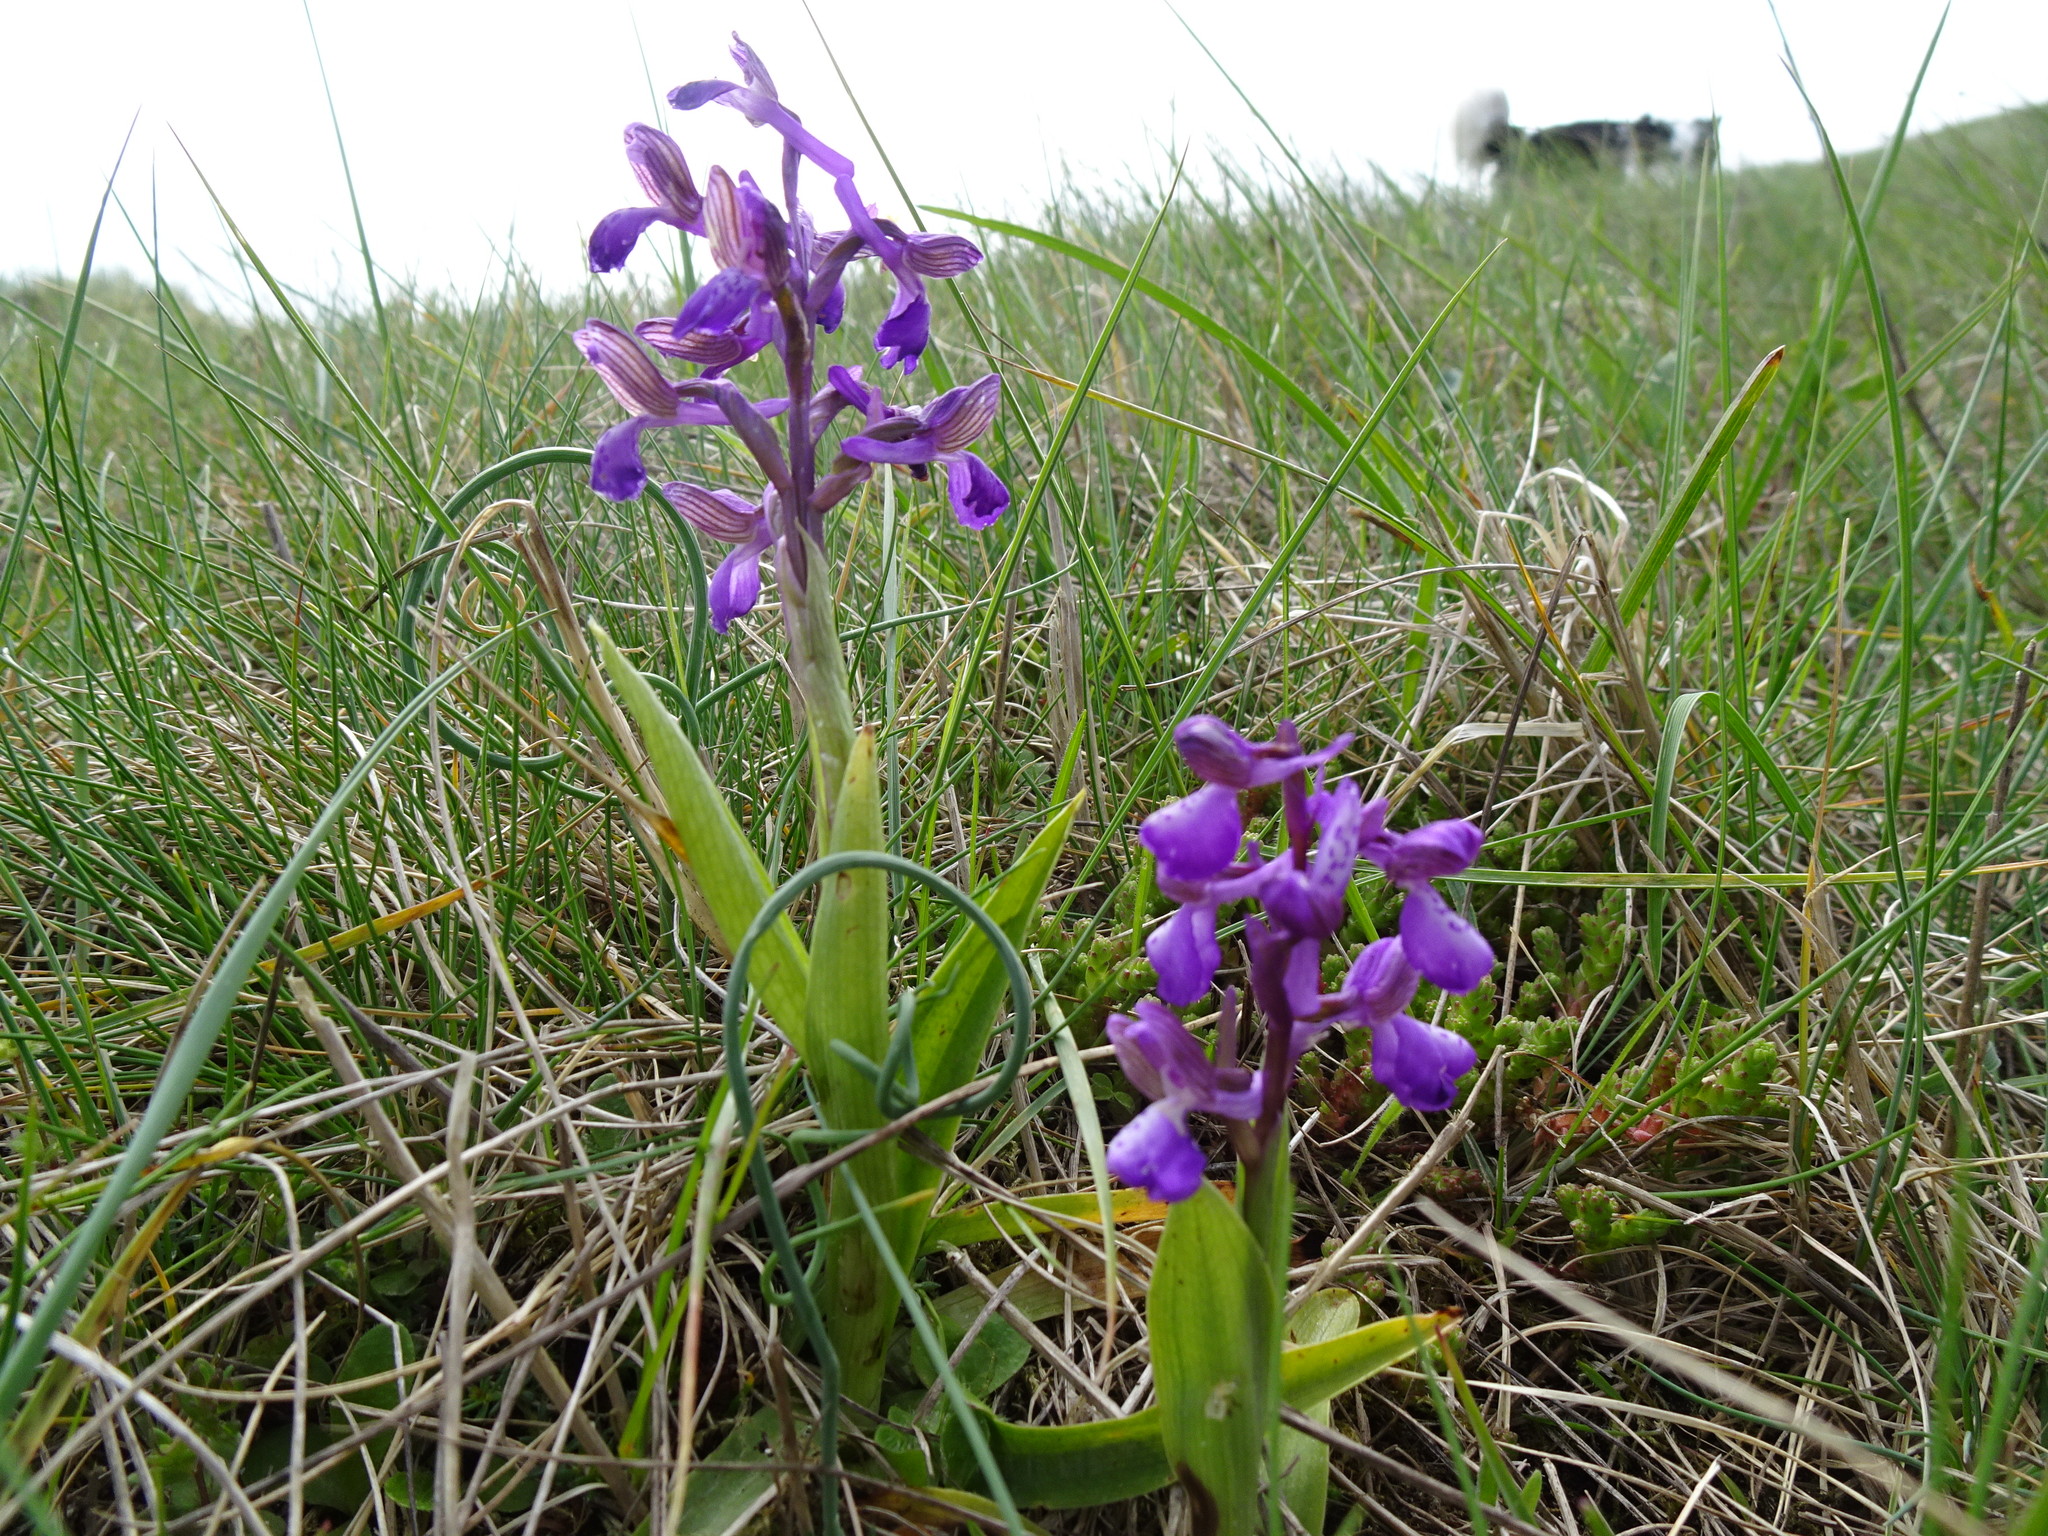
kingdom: Plantae
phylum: Tracheophyta
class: Liliopsida
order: Asparagales
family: Orchidaceae
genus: Anacamptis
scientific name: Anacamptis morio
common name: Green-winged orchid
